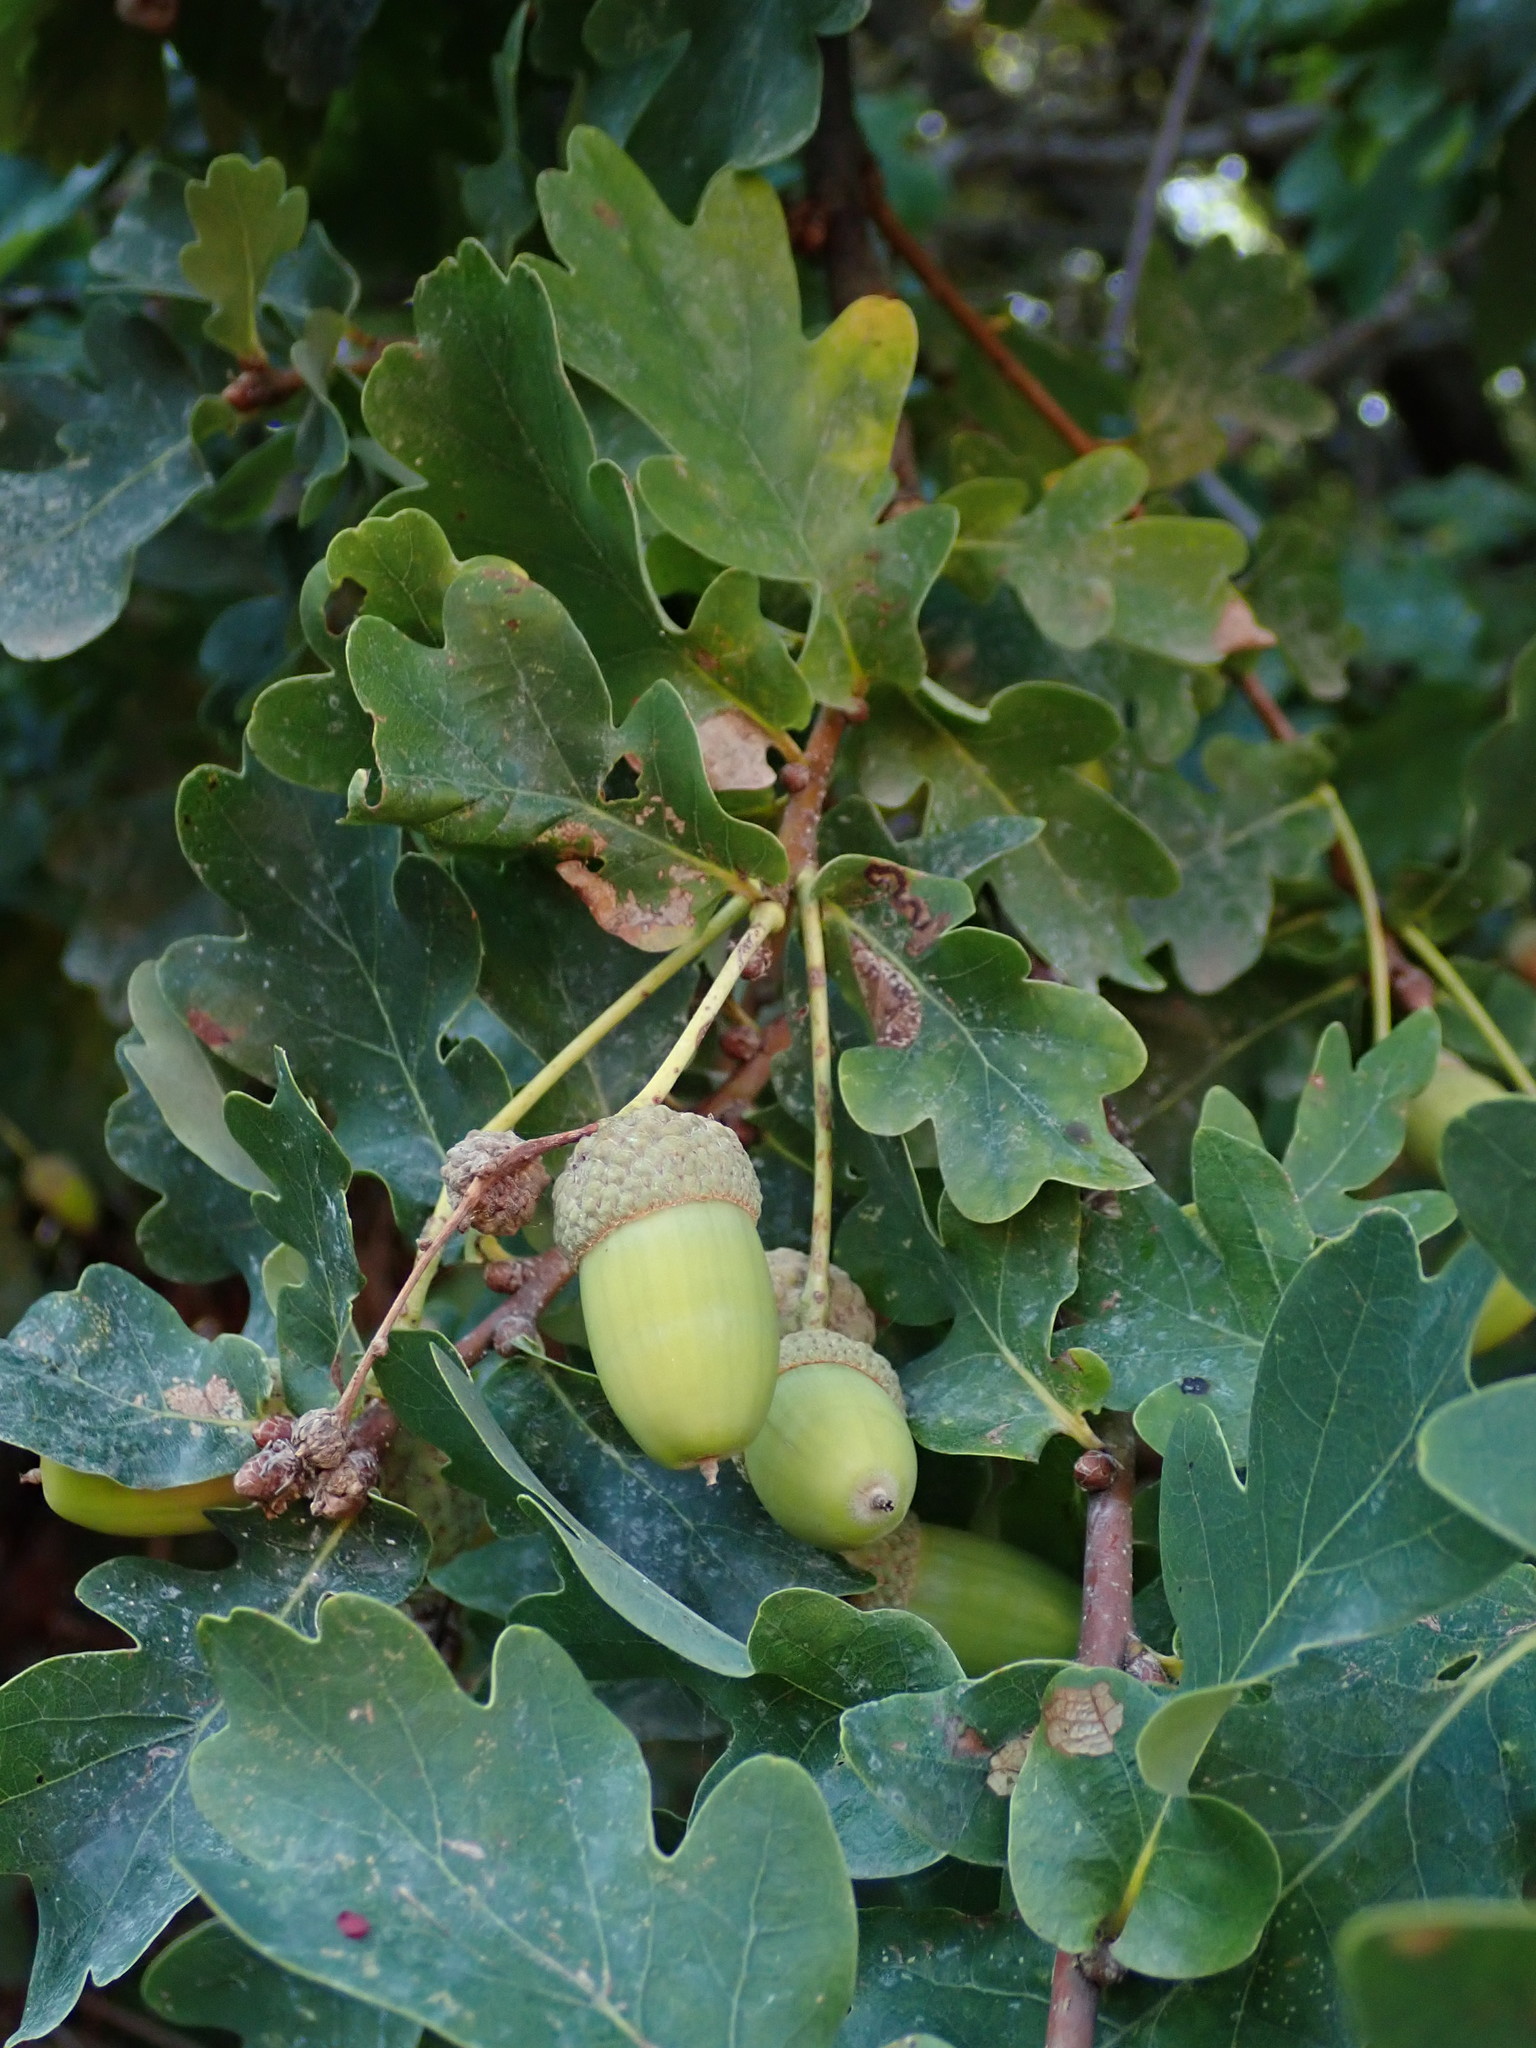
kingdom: Plantae
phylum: Tracheophyta
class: Magnoliopsida
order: Fagales
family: Fagaceae
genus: Quercus
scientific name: Quercus robur
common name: Pedunculate oak
